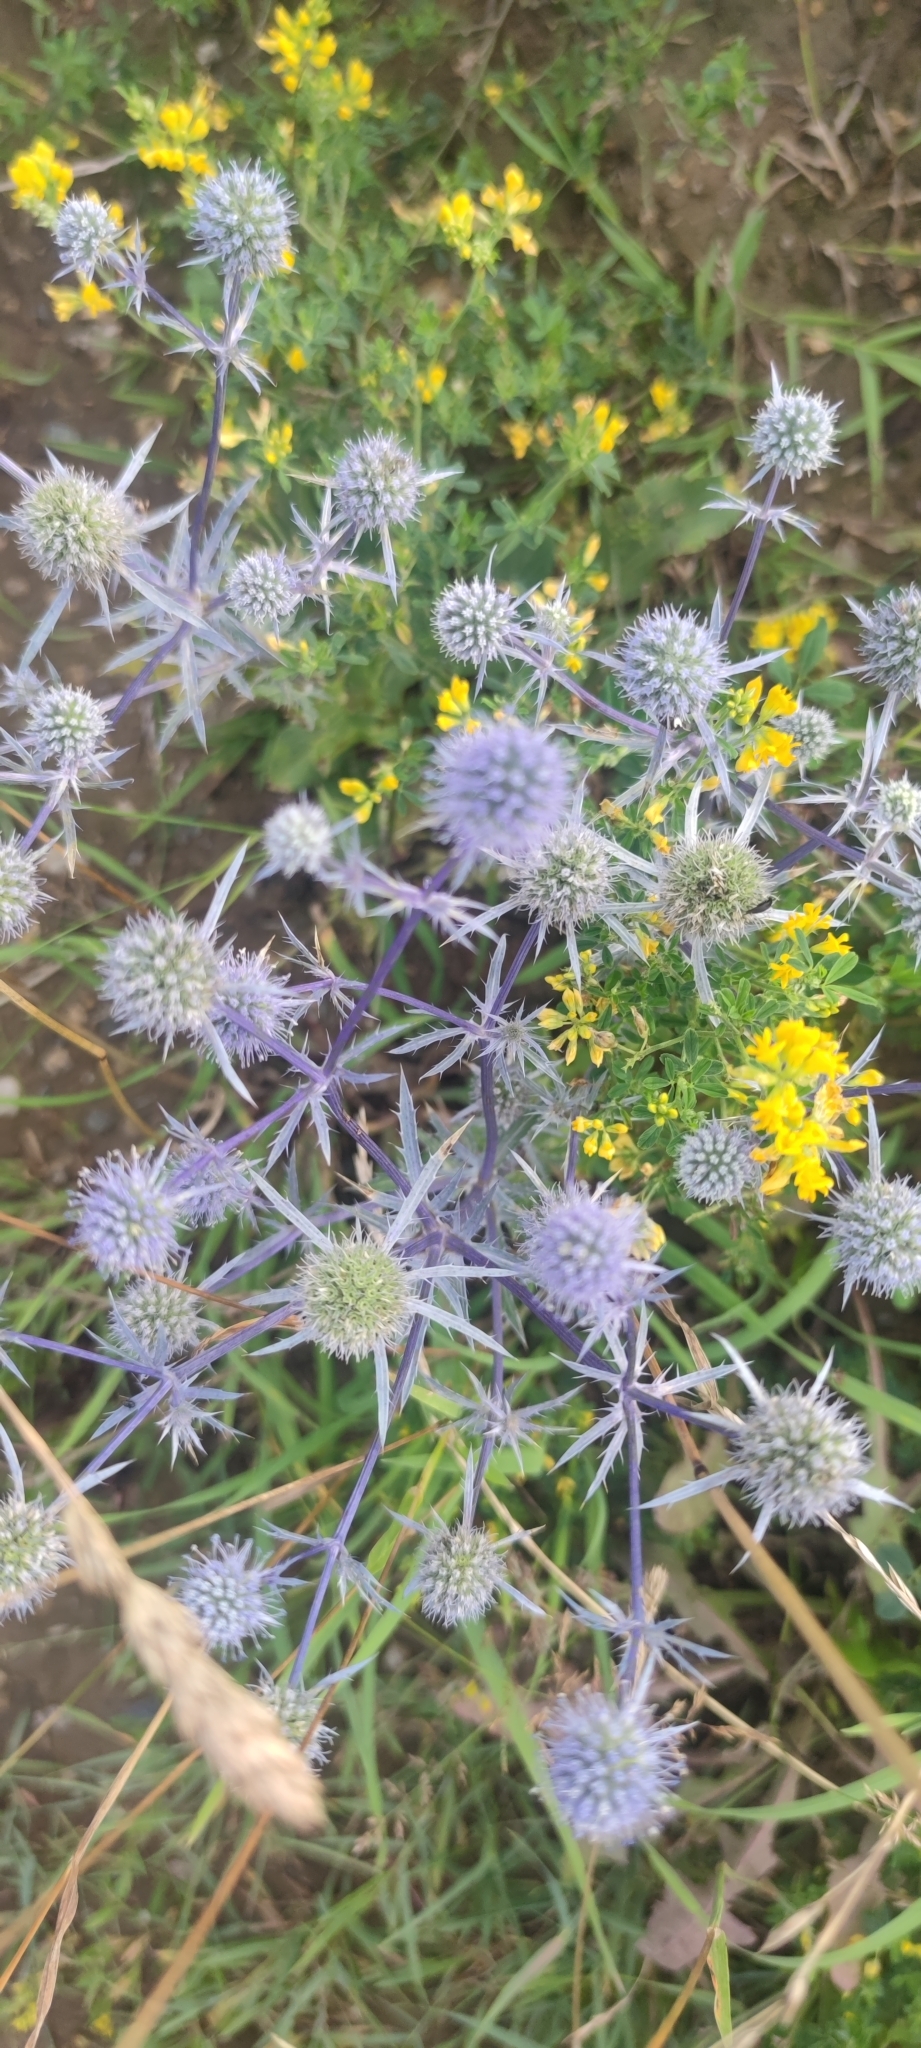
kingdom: Plantae
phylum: Tracheophyta
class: Magnoliopsida
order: Apiales
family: Apiaceae
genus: Eryngium
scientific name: Eryngium planum
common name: Blue eryngo
